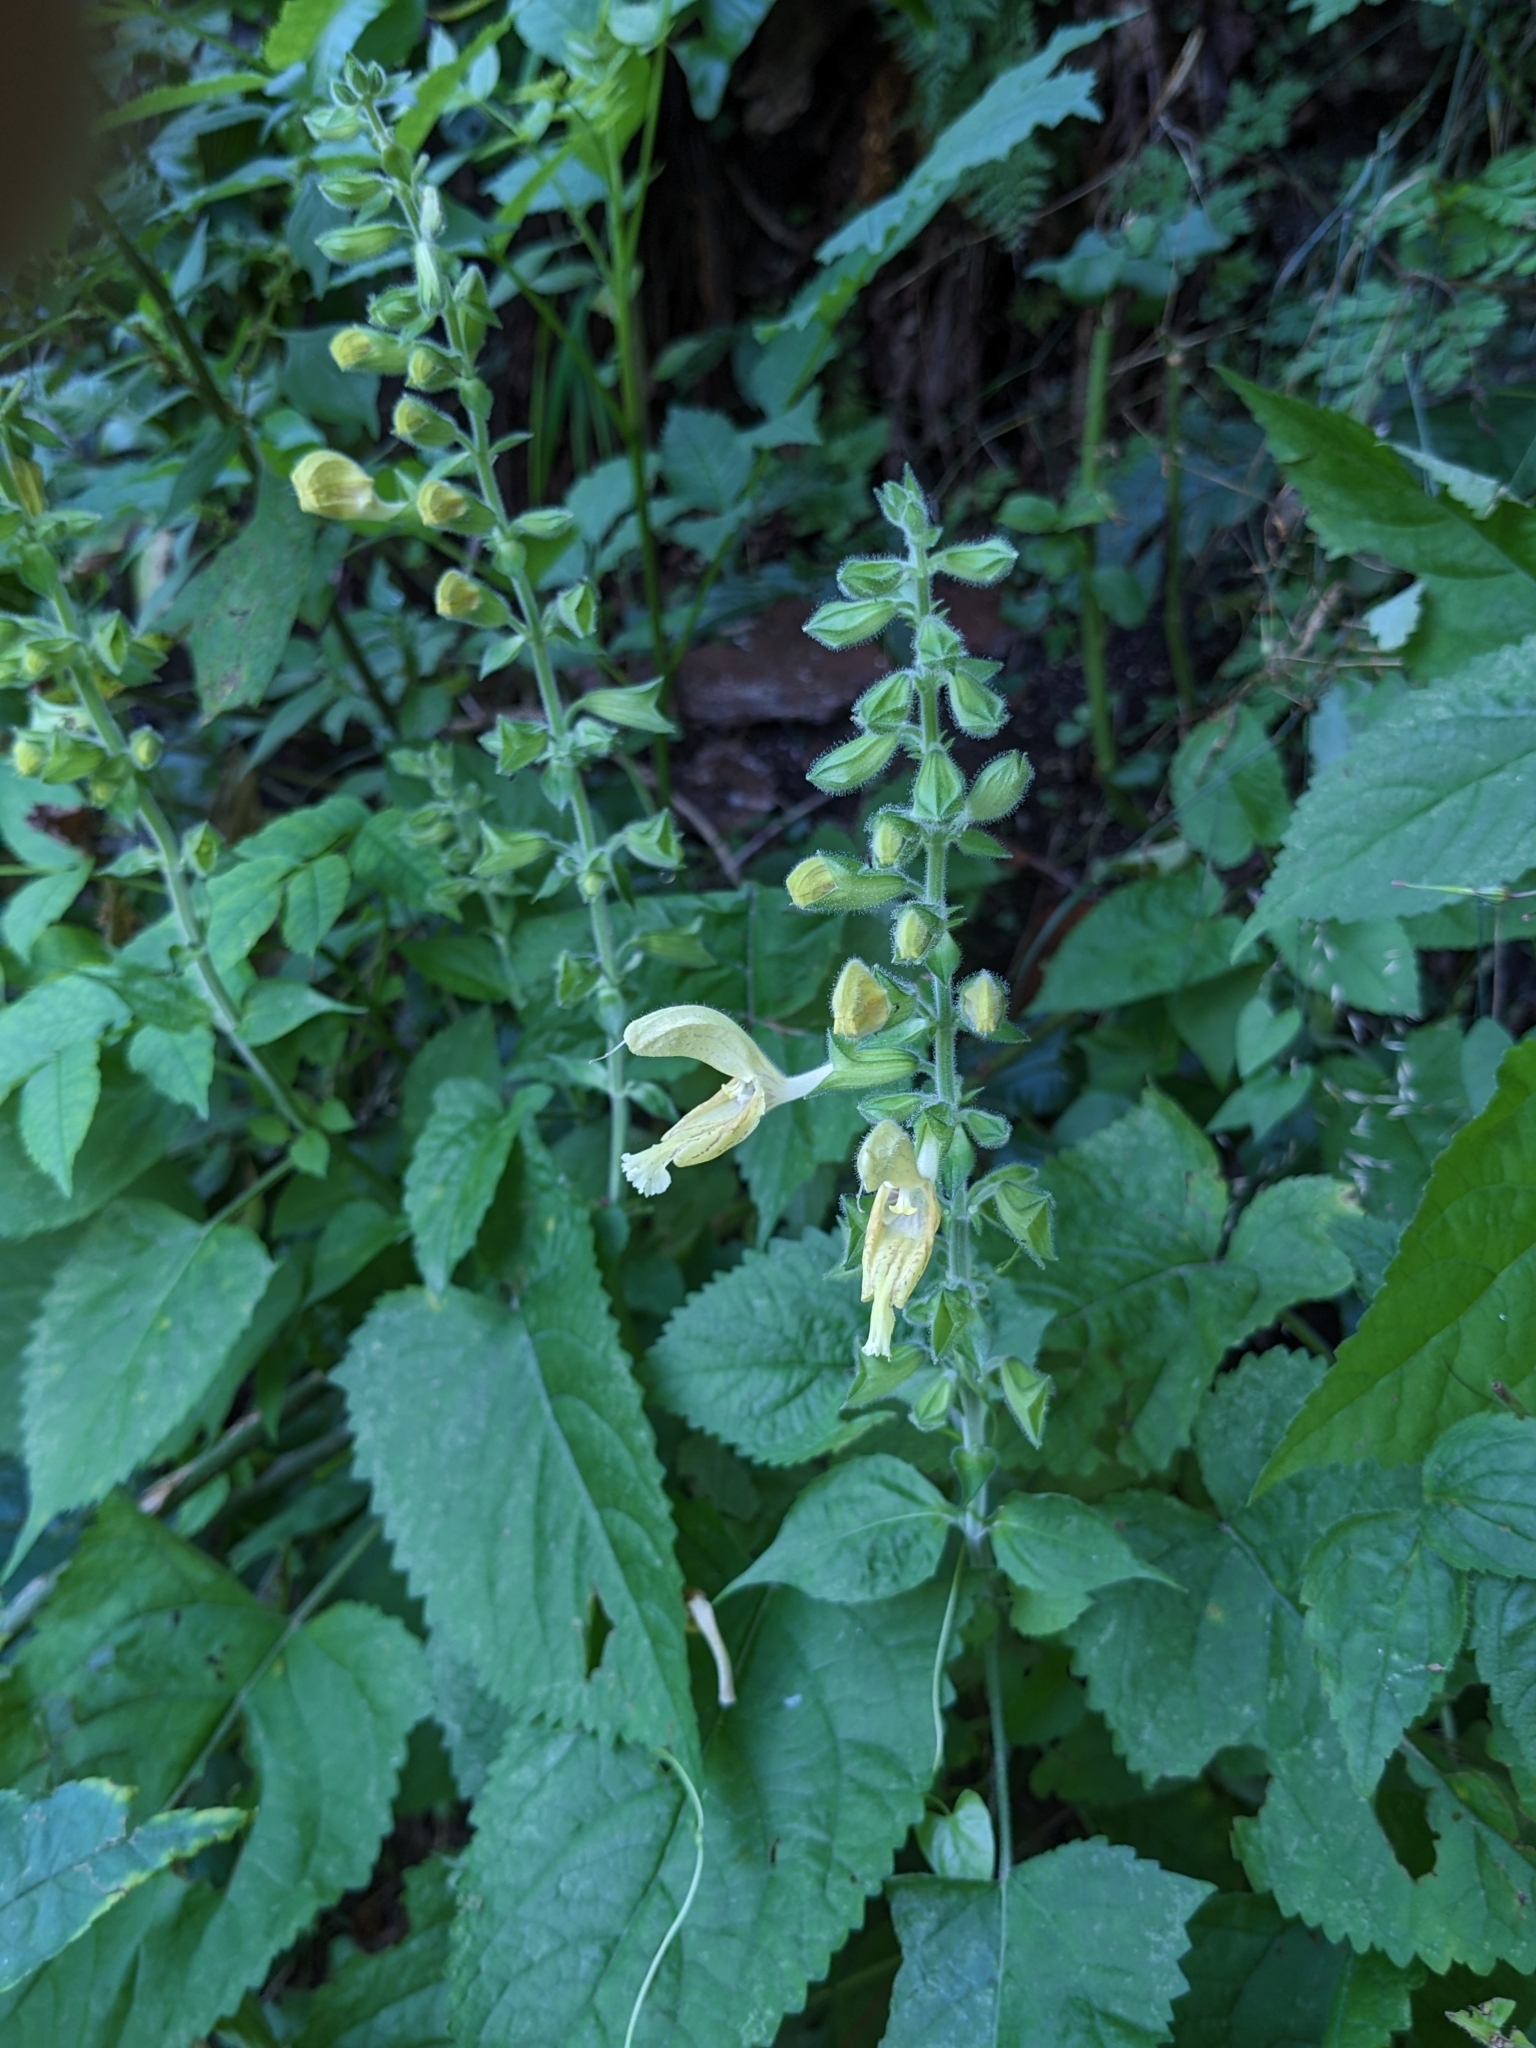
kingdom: Plantae
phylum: Tracheophyta
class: Magnoliopsida
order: Lamiales
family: Lamiaceae
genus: Salvia
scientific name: Salvia glutinosa
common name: Sticky clary
